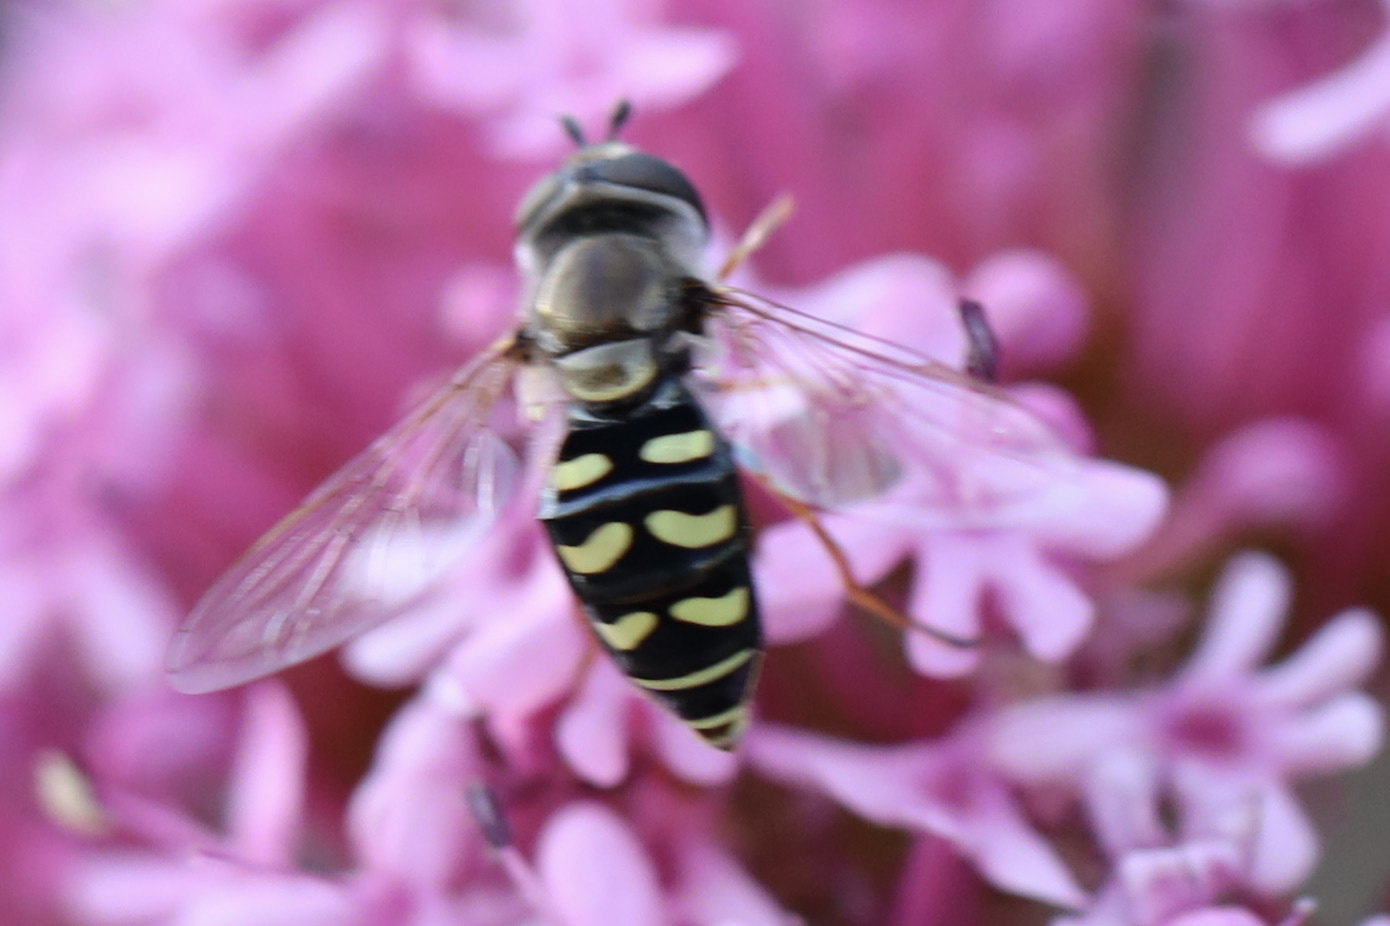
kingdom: Animalia
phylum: Arthropoda
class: Insecta
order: Diptera
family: Syrphidae
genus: Eupeodes
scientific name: Eupeodes volucris
